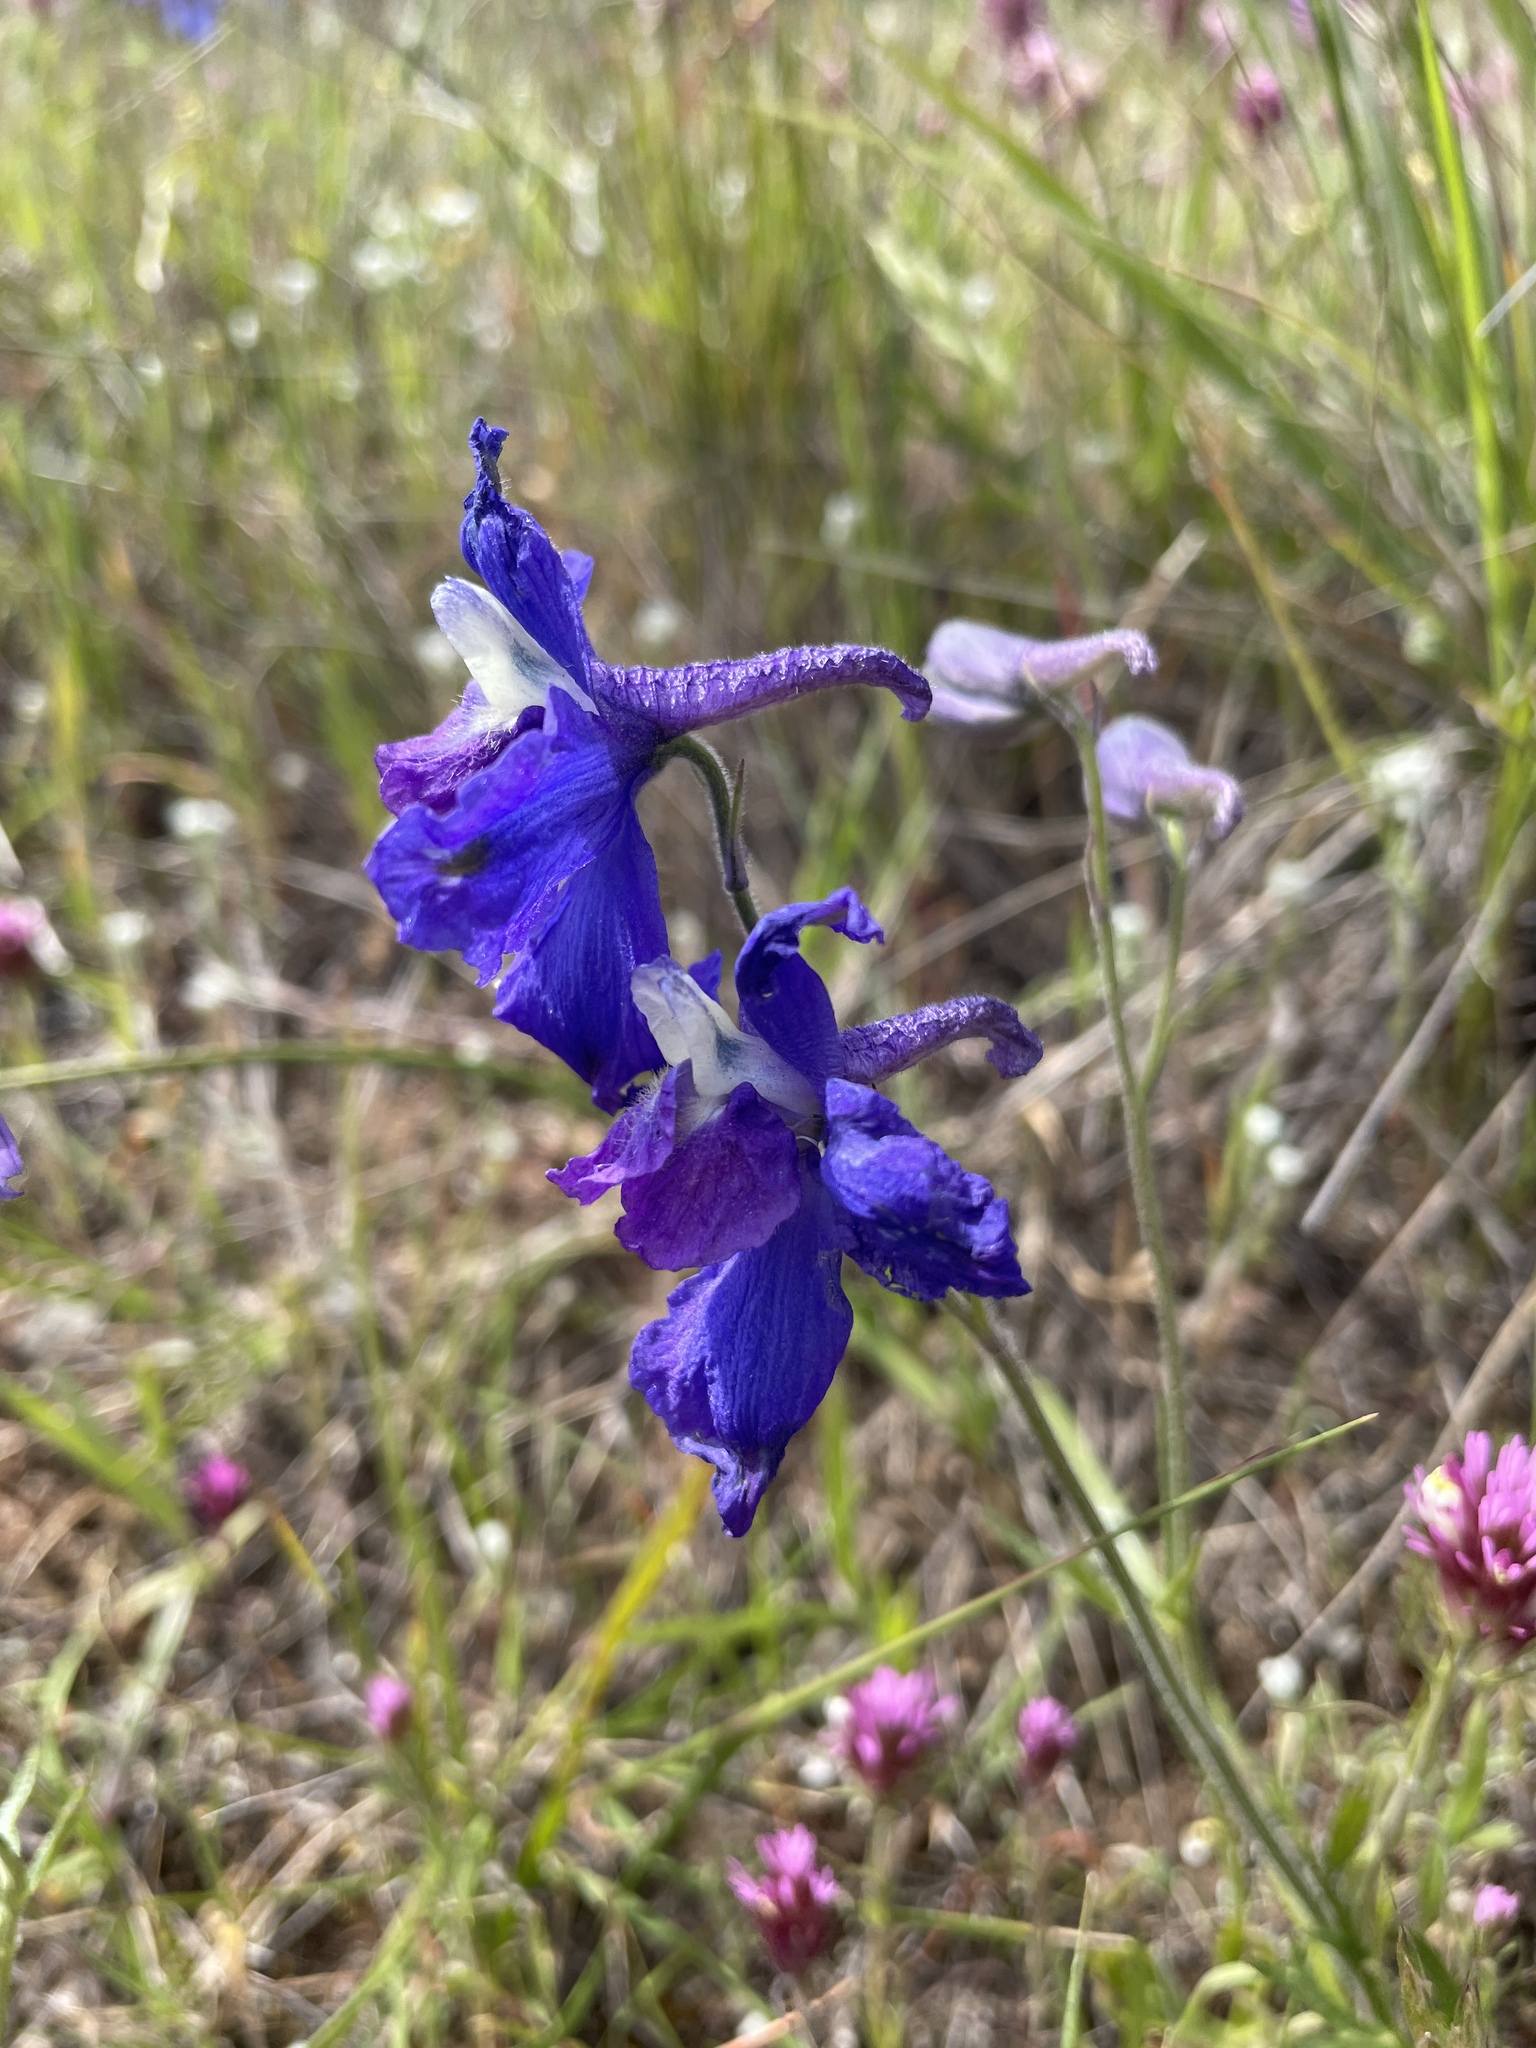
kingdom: Plantae
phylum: Tracheophyta
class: Magnoliopsida
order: Ranunculales
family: Ranunculaceae
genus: Delphinium
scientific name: Delphinium variegatum
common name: Royal larkspur
